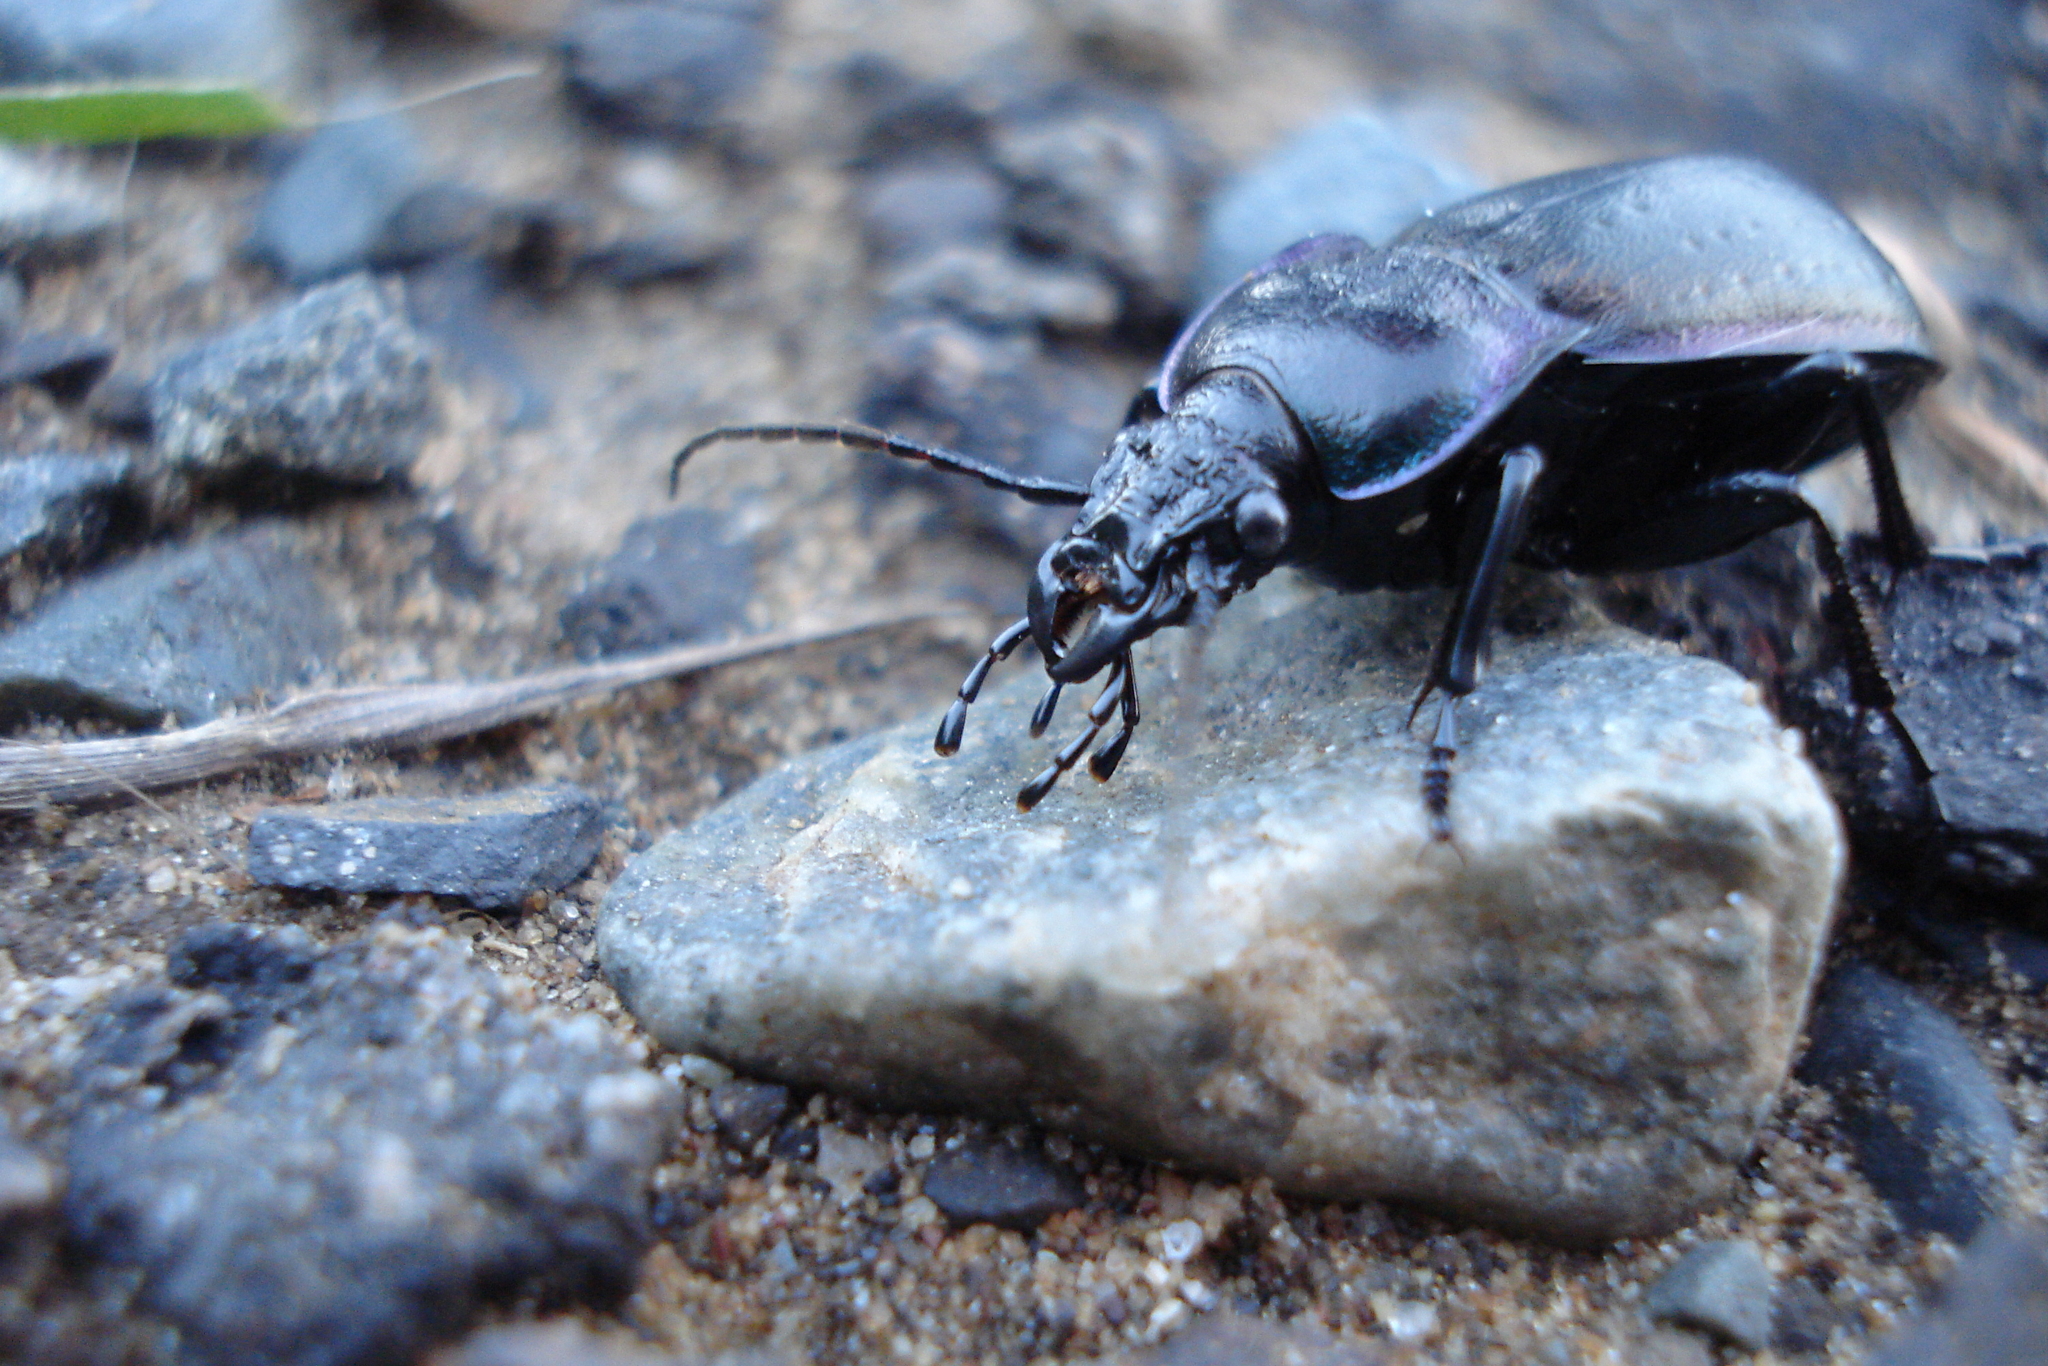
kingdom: Animalia
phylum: Arthropoda
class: Insecta
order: Coleoptera
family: Carabidae
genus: Carabus
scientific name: Carabus nemoralis
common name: European ground beetle
